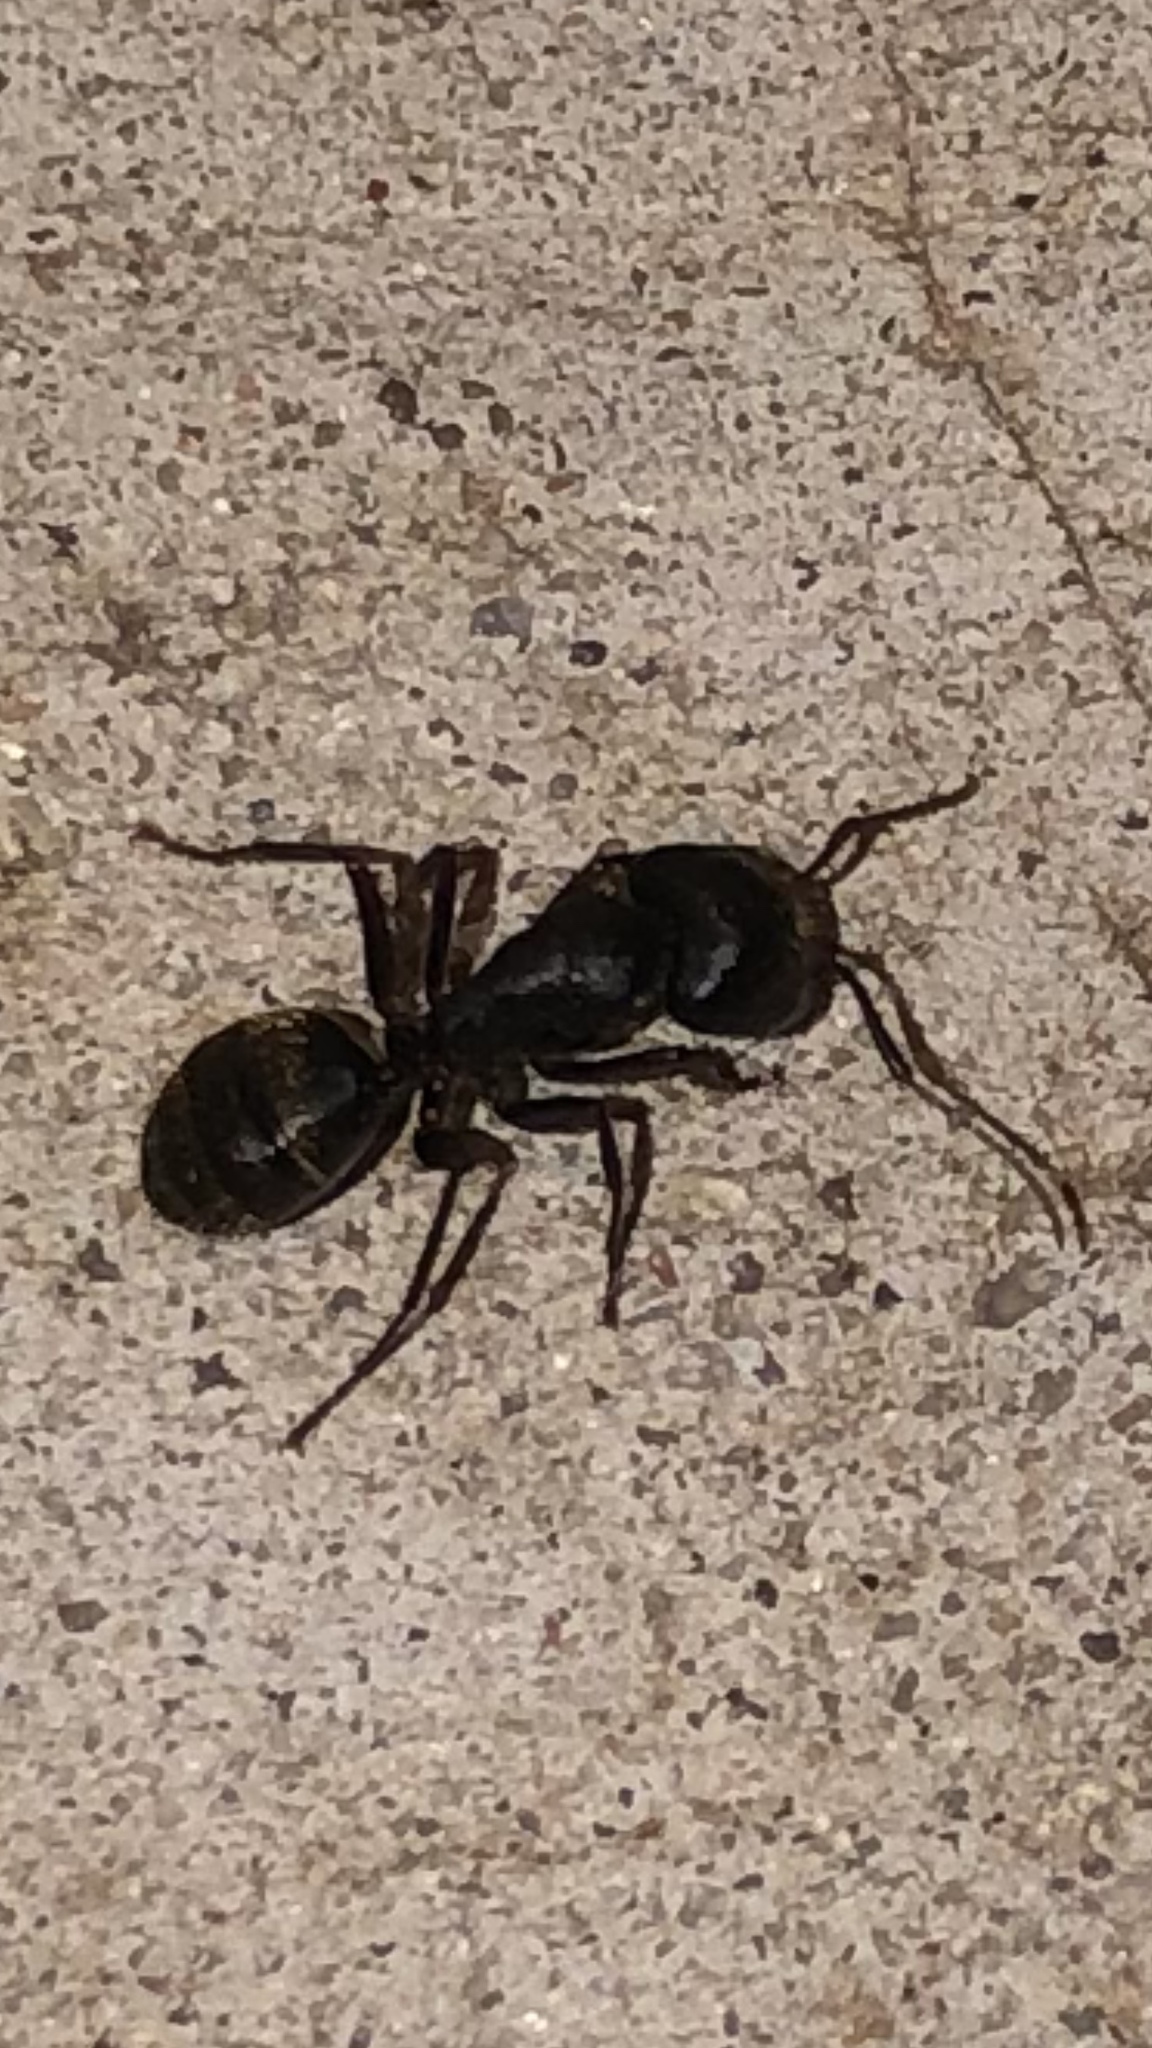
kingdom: Animalia
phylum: Arthropoda
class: Insecta
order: Hymenoptera
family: Formicidae
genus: Camponotus
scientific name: Camponotus pennsylvanicus
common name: Black carpenter ant
